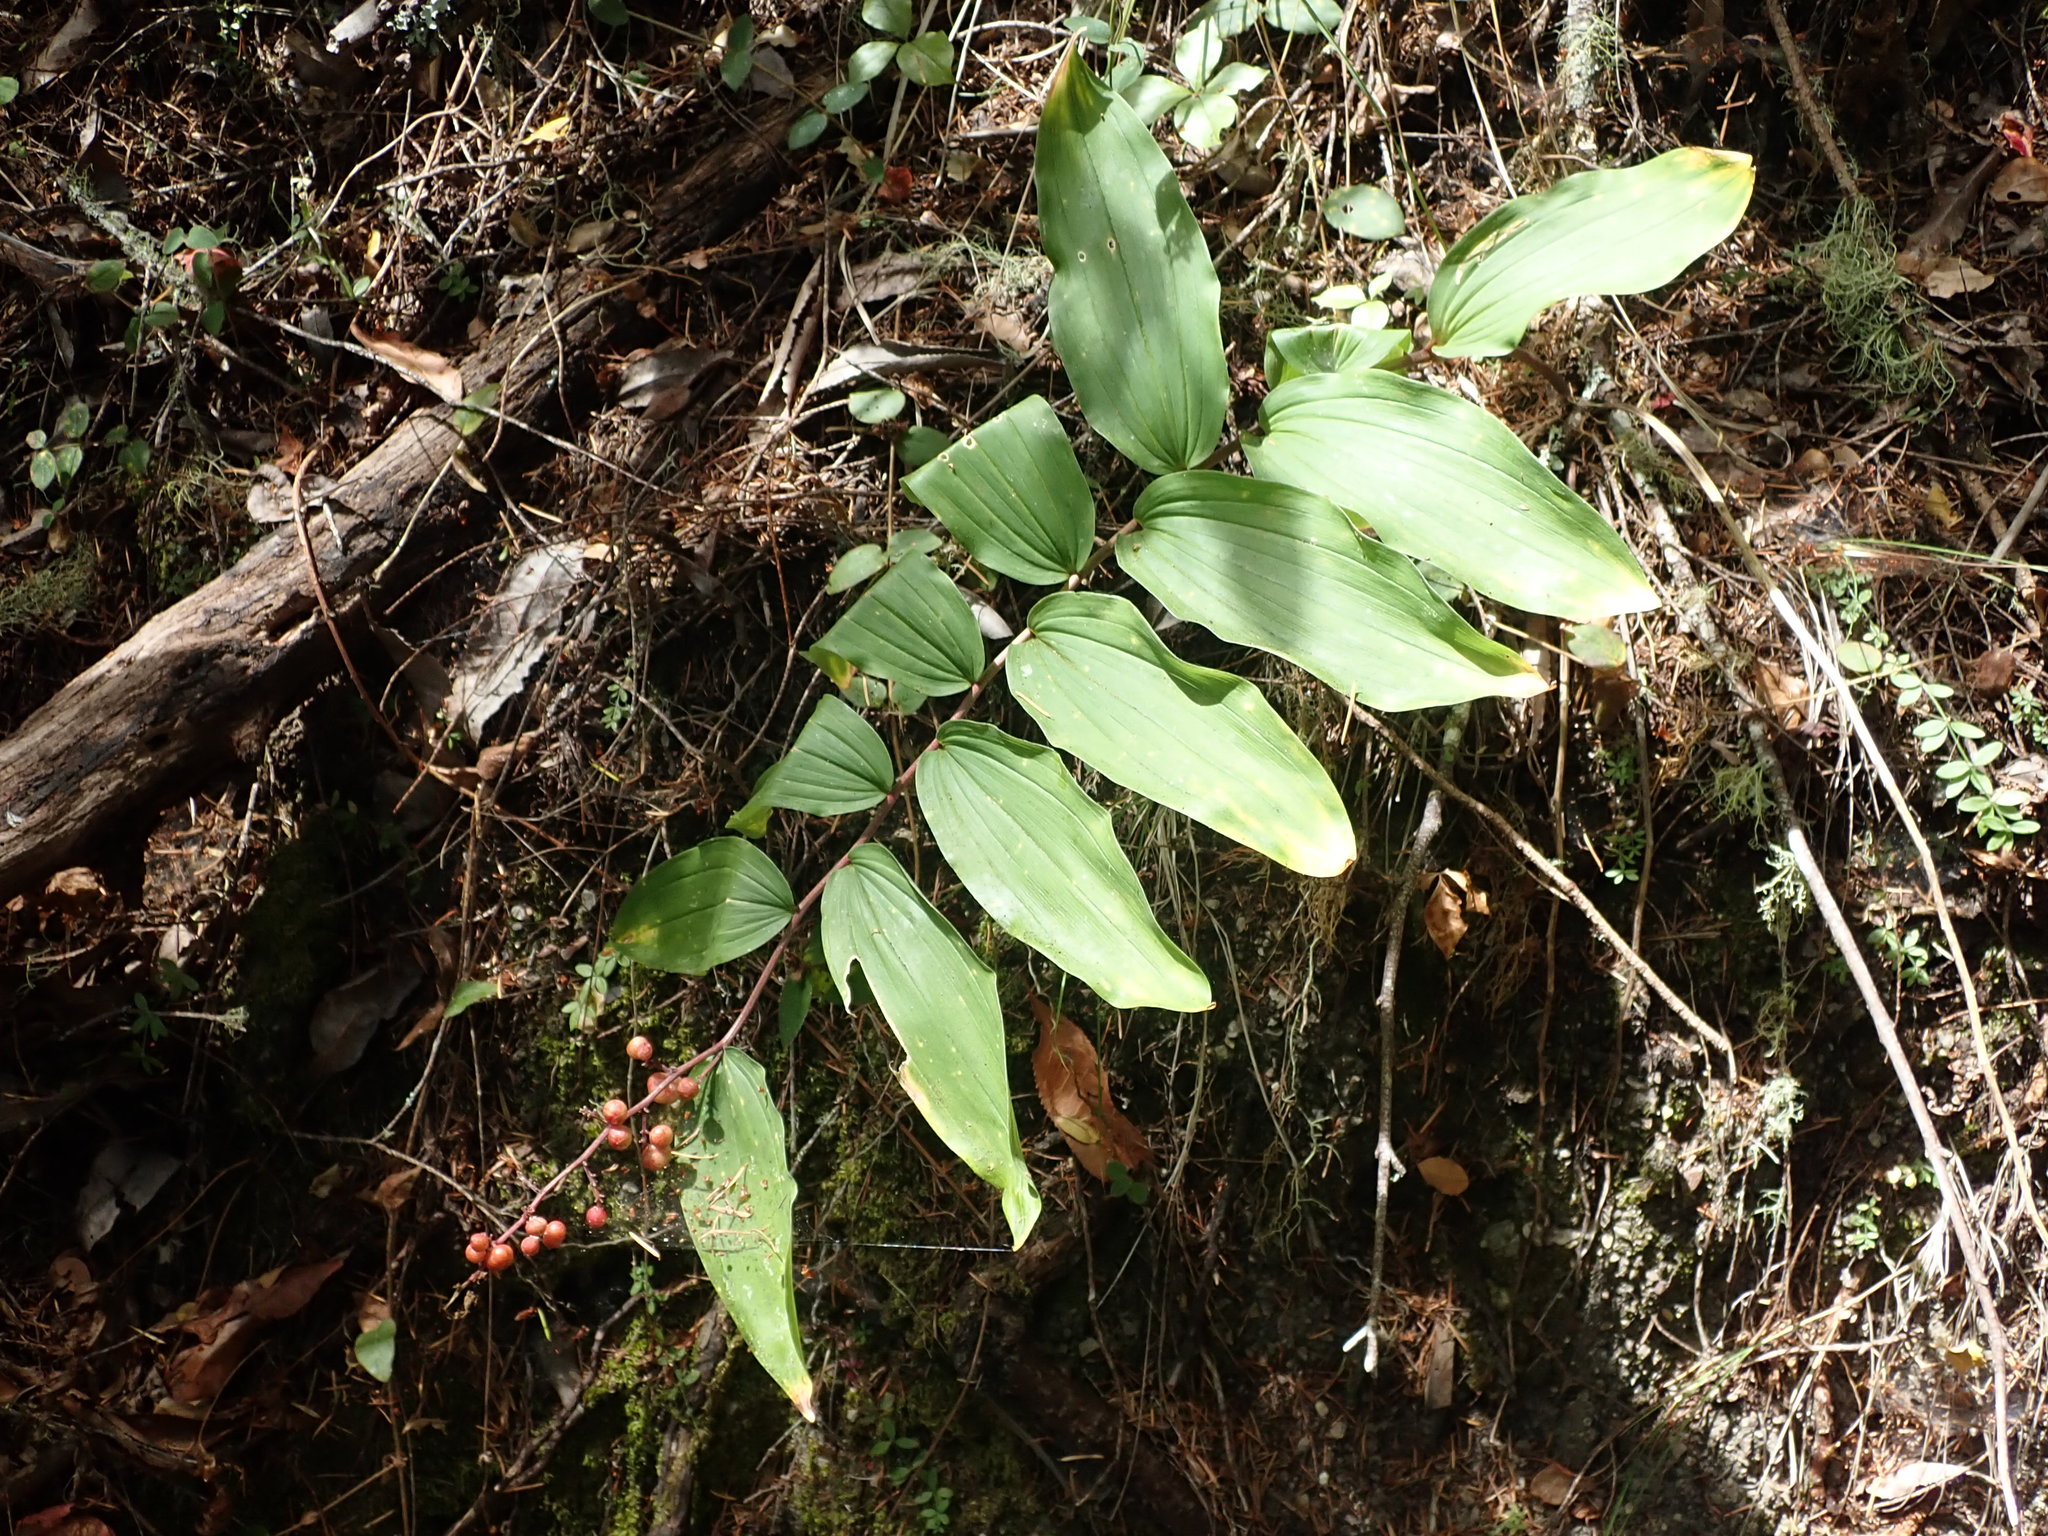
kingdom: Plantae
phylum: Tracheophyta
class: Liliopsida
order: Asparagales
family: Asparagaceae
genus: Maianthemum
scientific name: Maianthemum racemosum
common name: False spikenard
